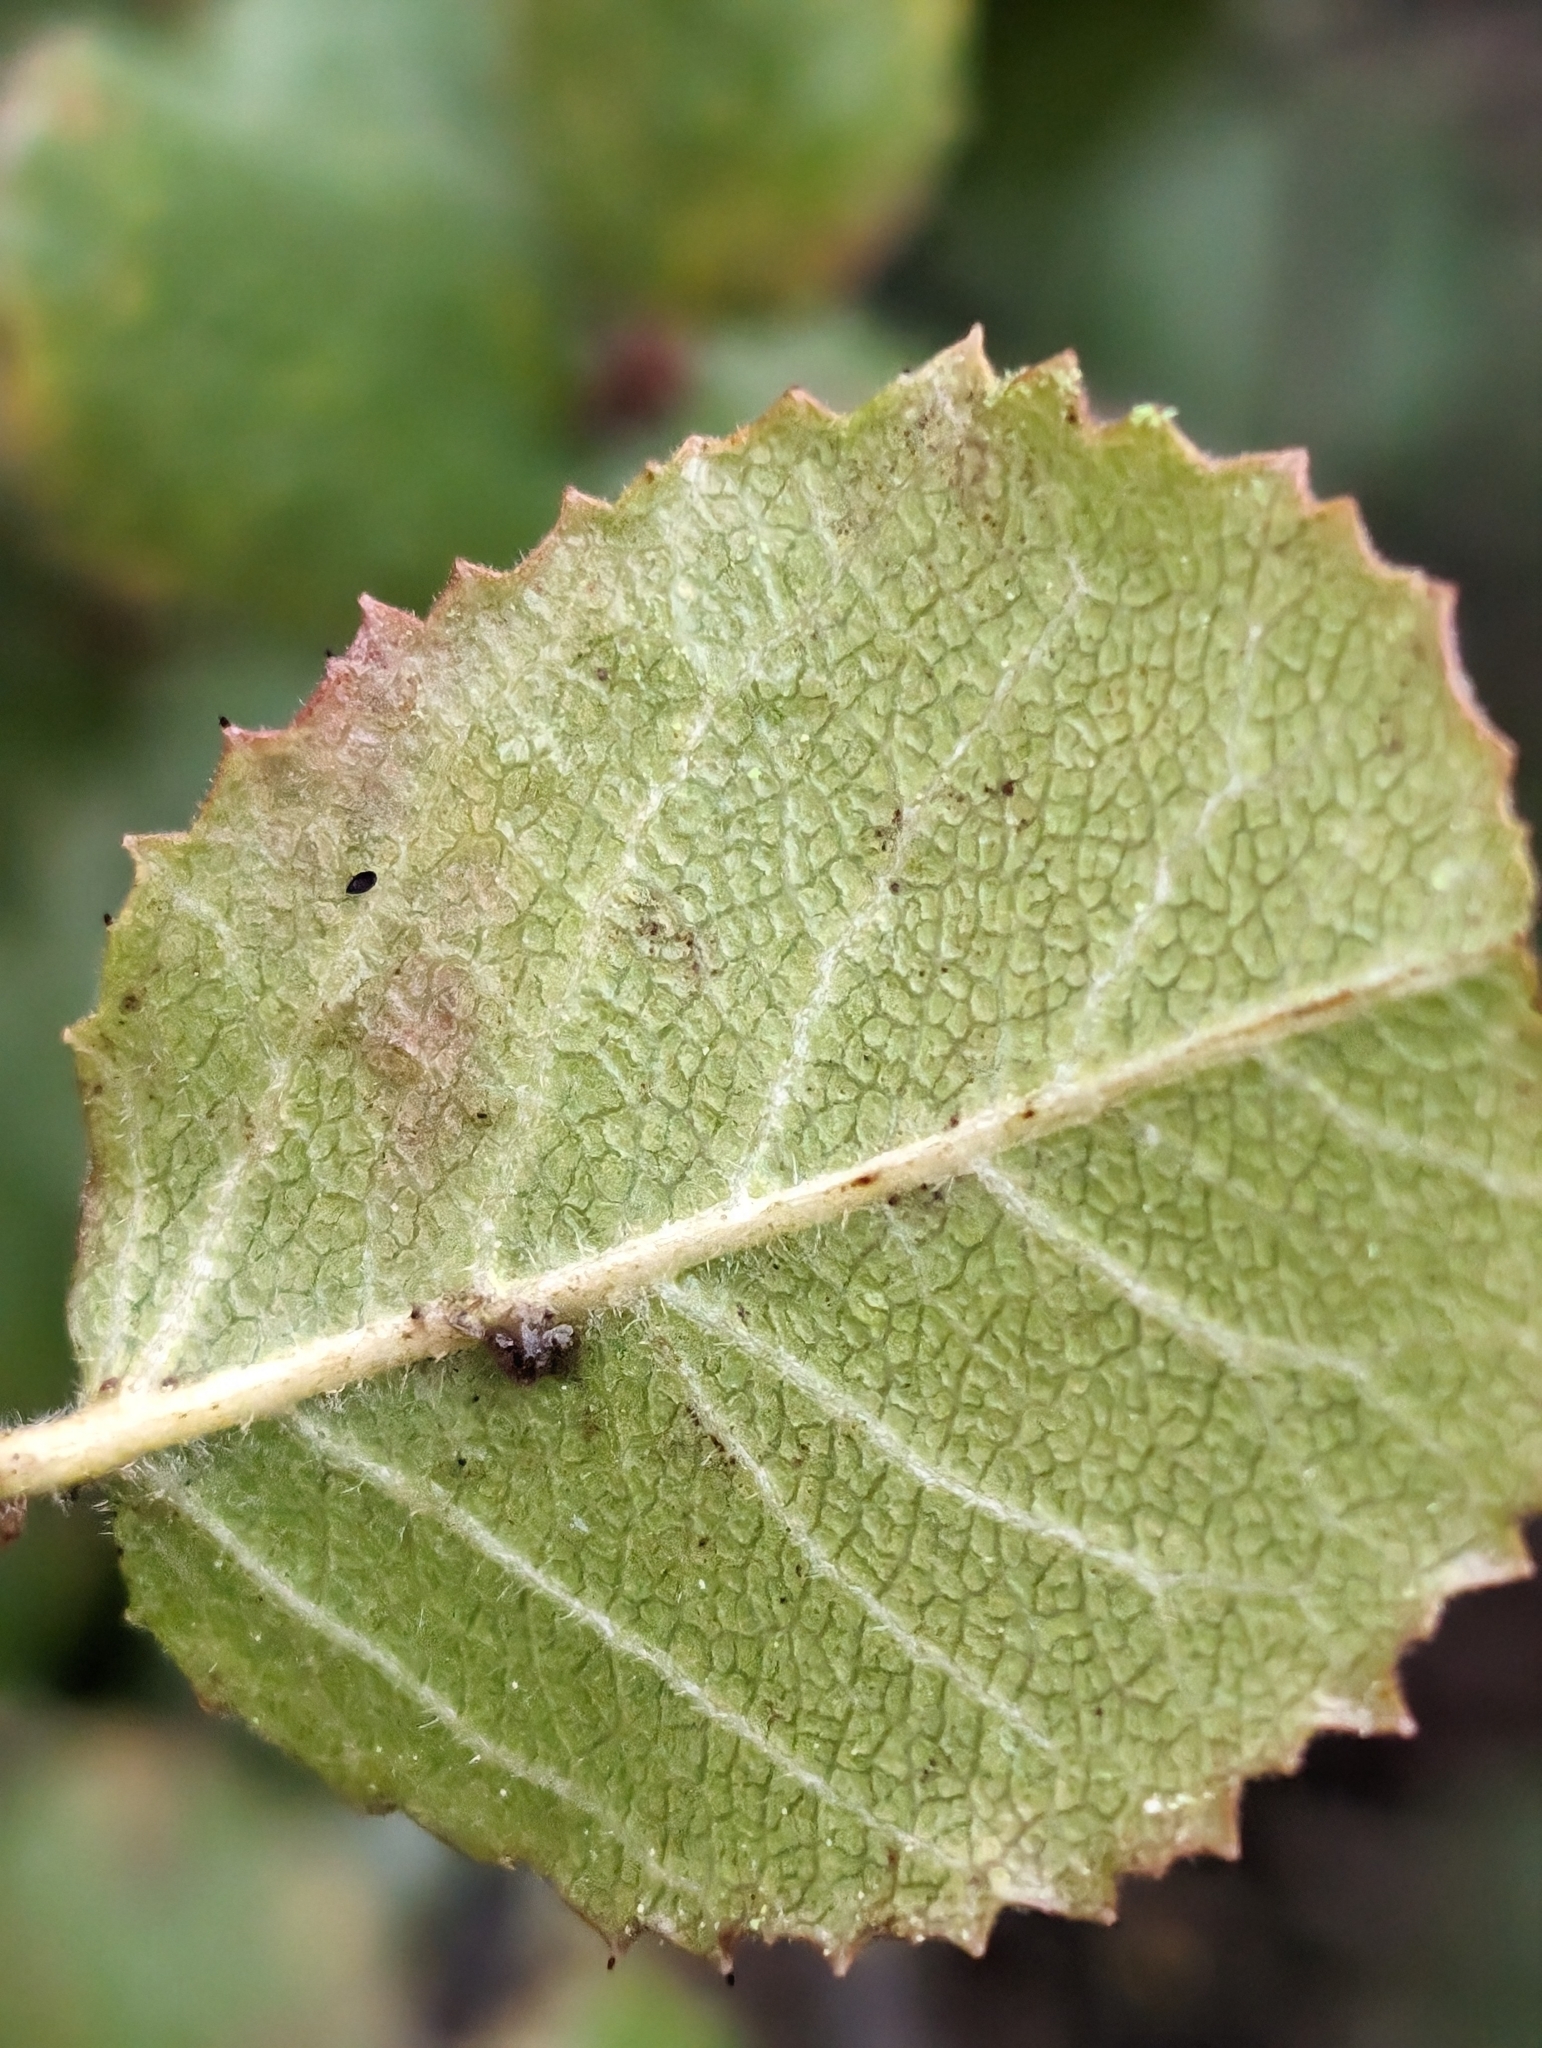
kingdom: Plantae
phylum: Tracheophyta
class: Magnoliopsida
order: Rosales
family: Rhamnaceae
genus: Endotropis
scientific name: Endotropis crocea
